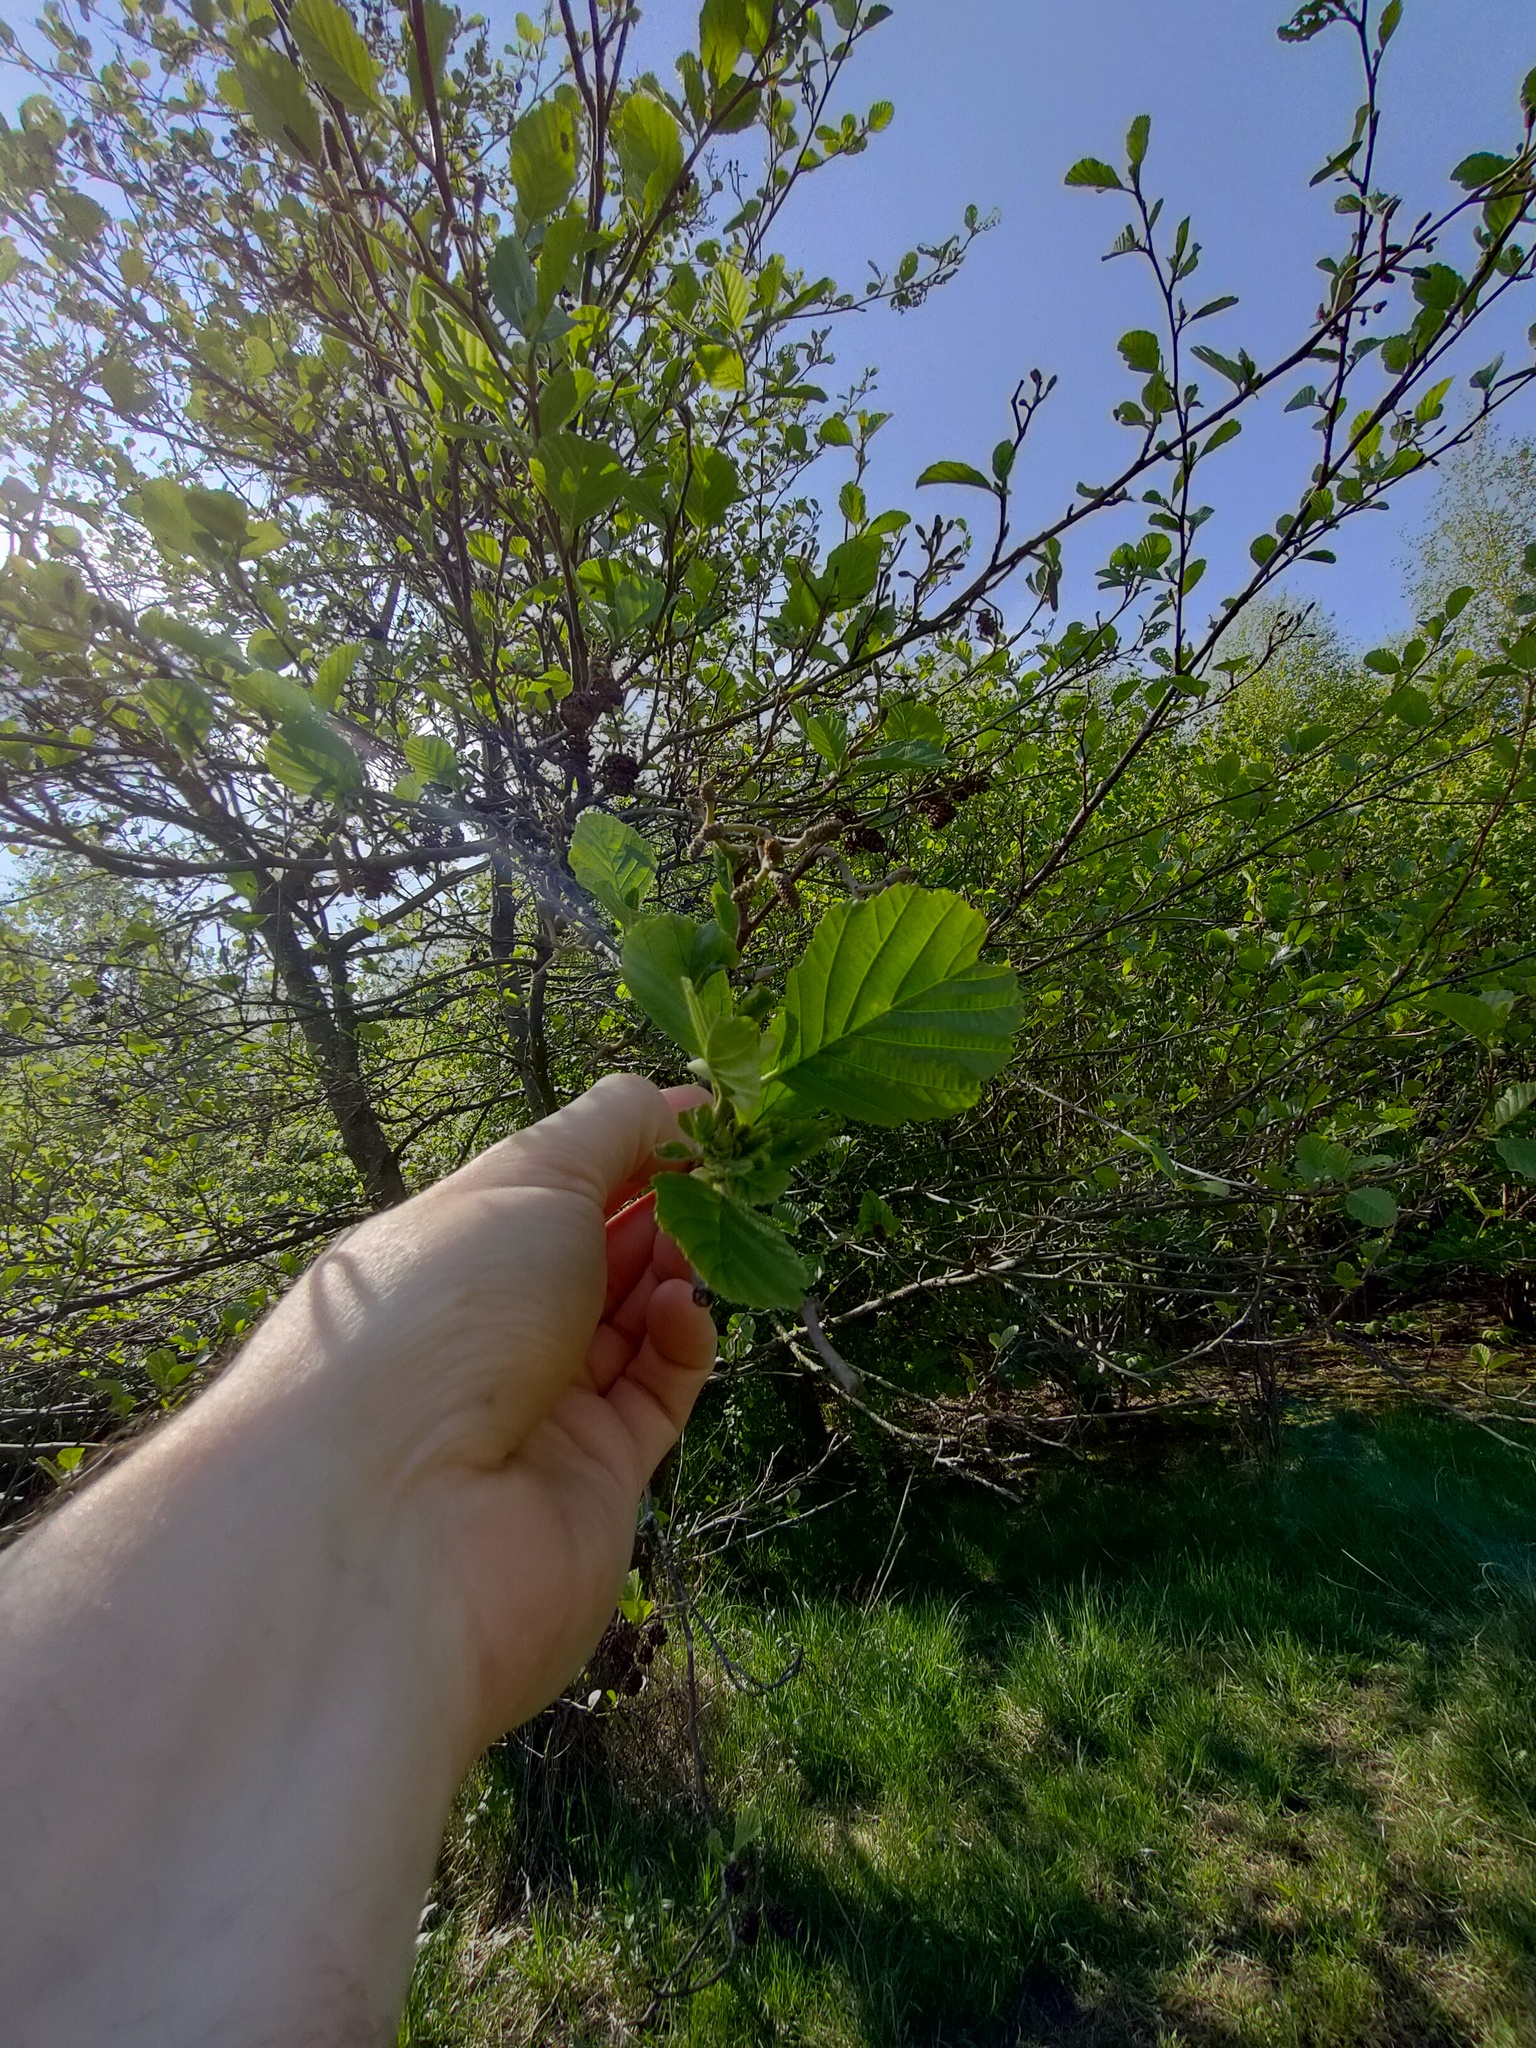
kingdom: Plantae
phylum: Tracheophyta
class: Magnoliopsida
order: Fagales
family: Betulaceae
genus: Alnus
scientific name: Alnus glutinosa
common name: Black alder
